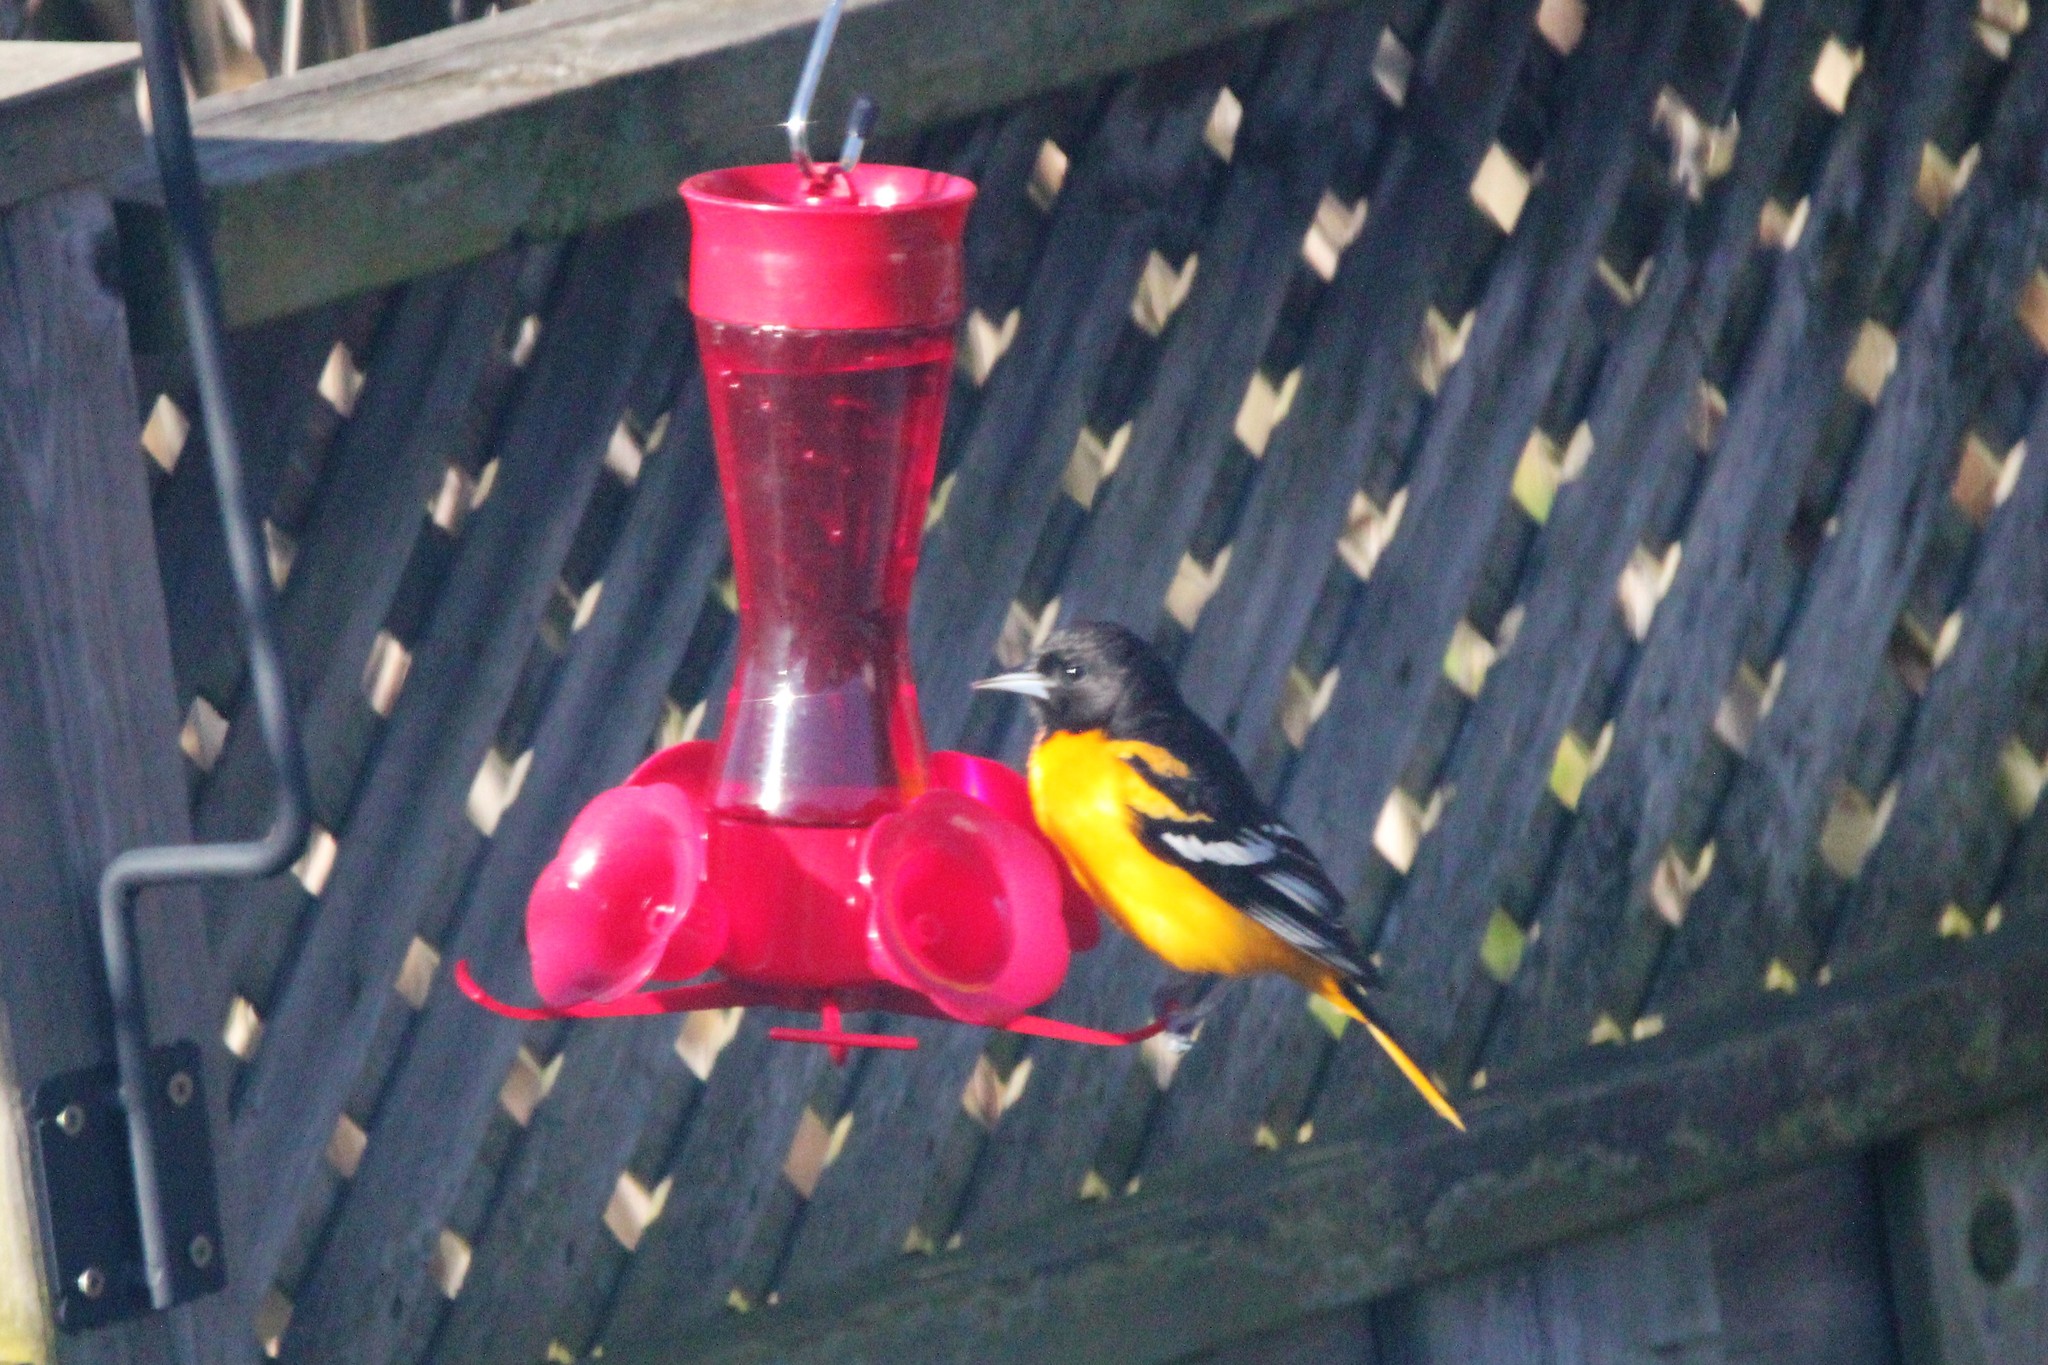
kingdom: Animalia
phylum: Chordata
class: Aves
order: Passeriformes
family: Icteridae
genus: Icterus
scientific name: Icterus galbula
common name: Baltimore oriole
